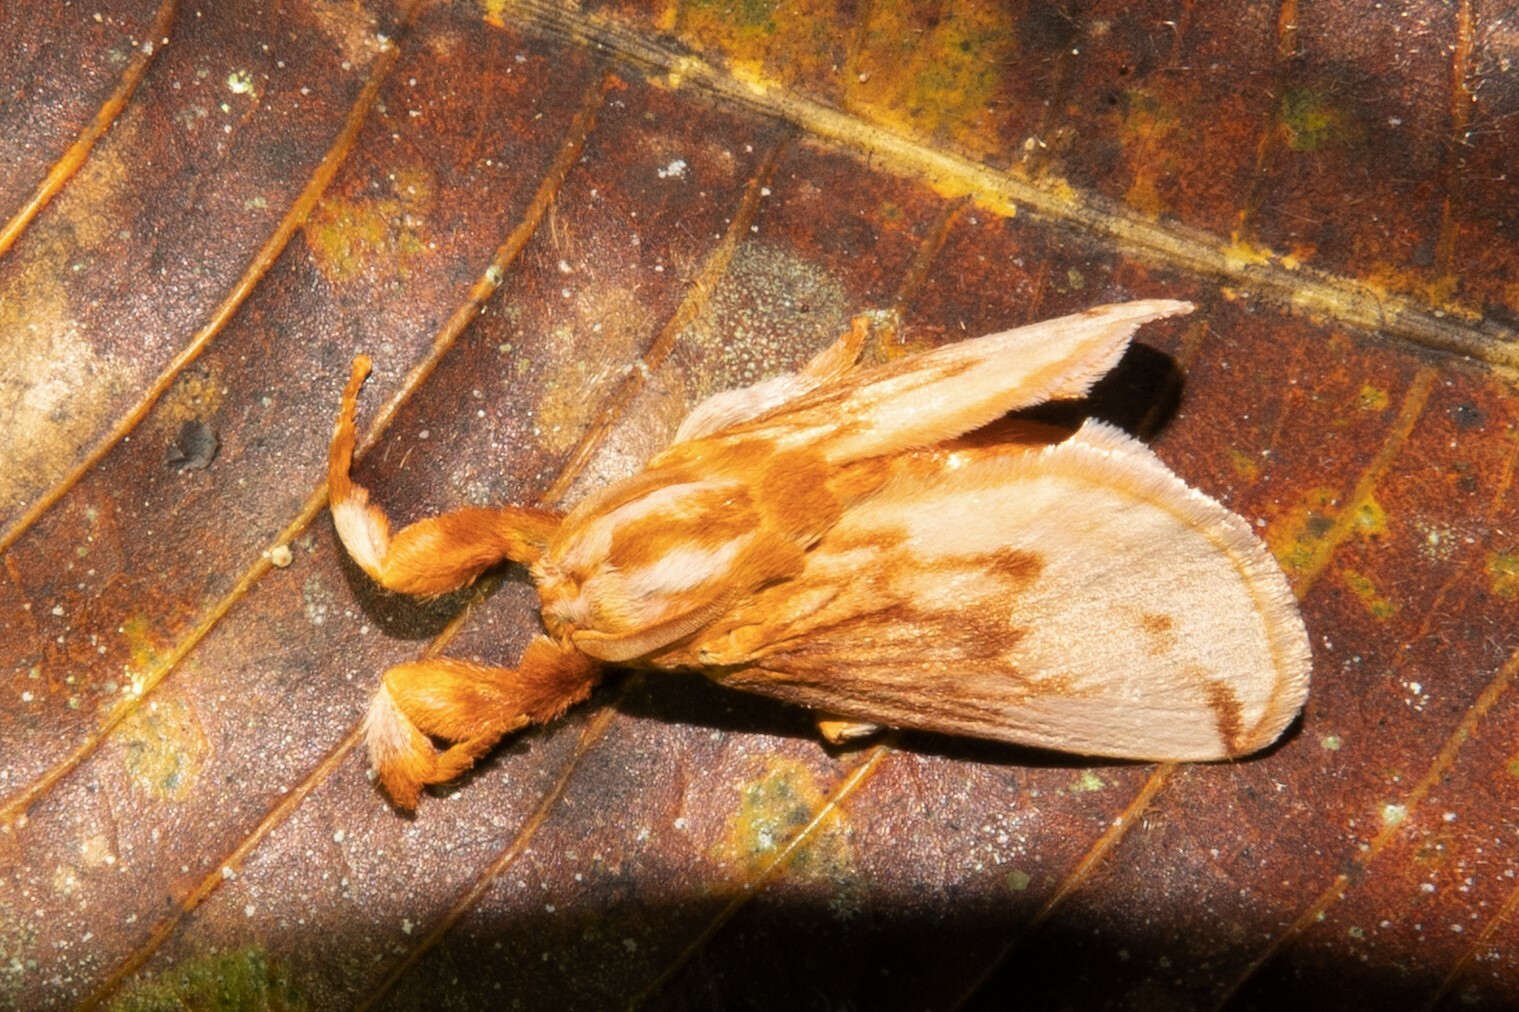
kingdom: Animalia
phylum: Arthropoda
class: Insecta
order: Lepidoptera
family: Limacodidae
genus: Perola
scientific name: Perola sericea
